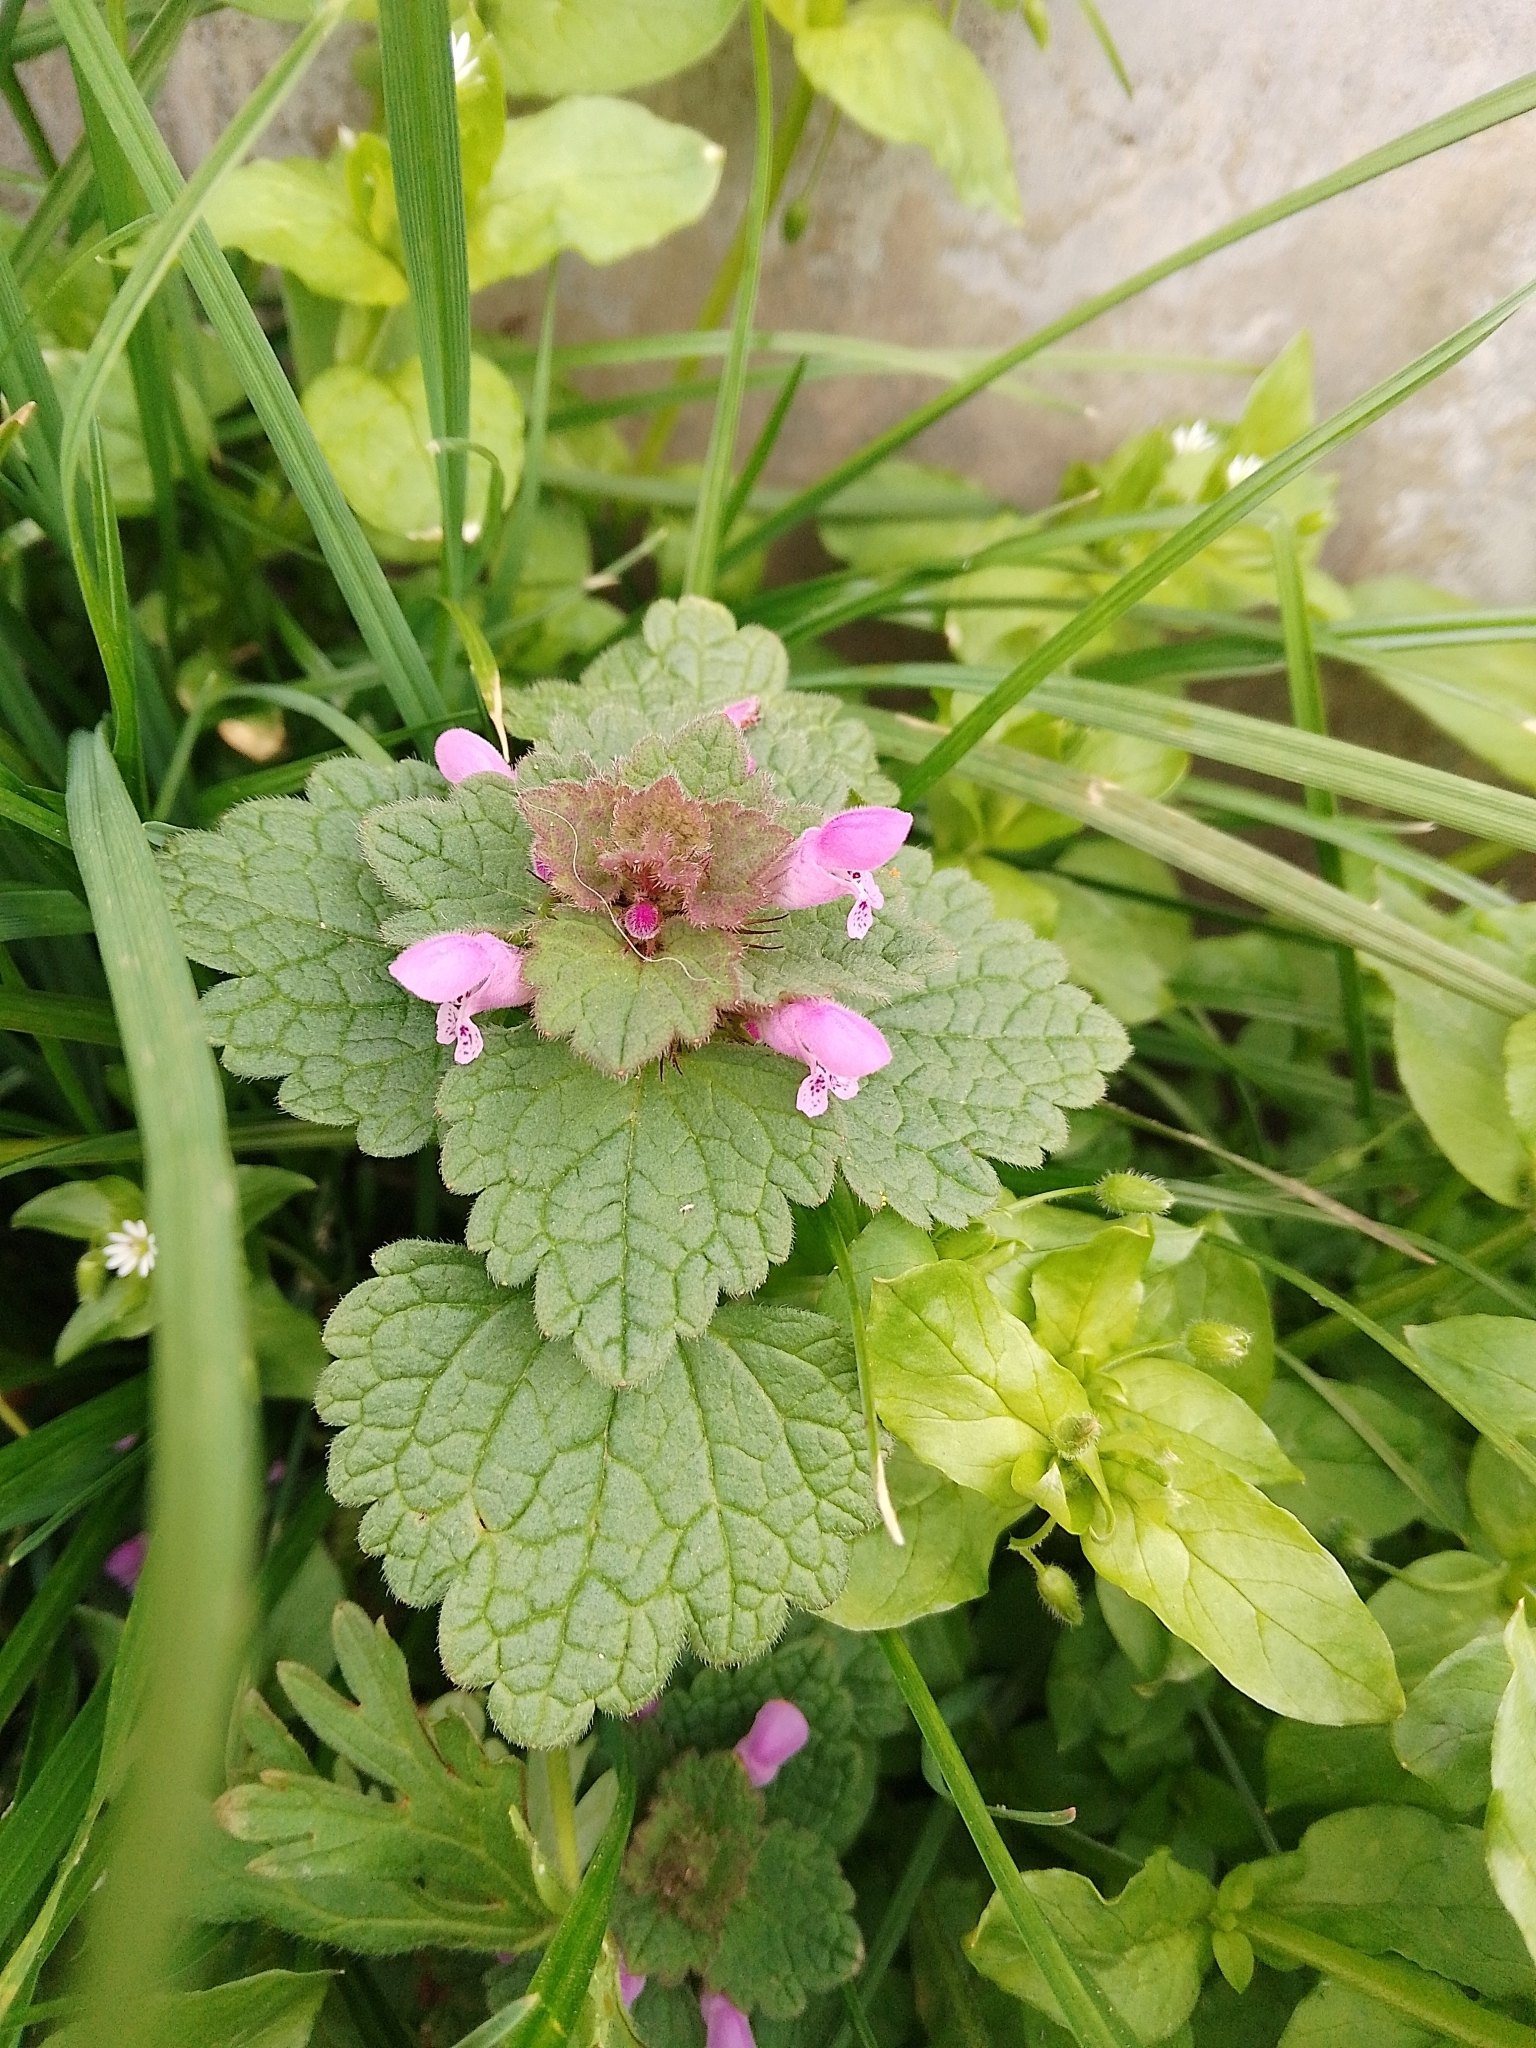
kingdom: Plantae
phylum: Tracheophyta
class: Magnoliopsida
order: Lamiales
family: Lamiaceae
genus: Lamium
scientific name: Lamium purpureum
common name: Red dead-nettle
